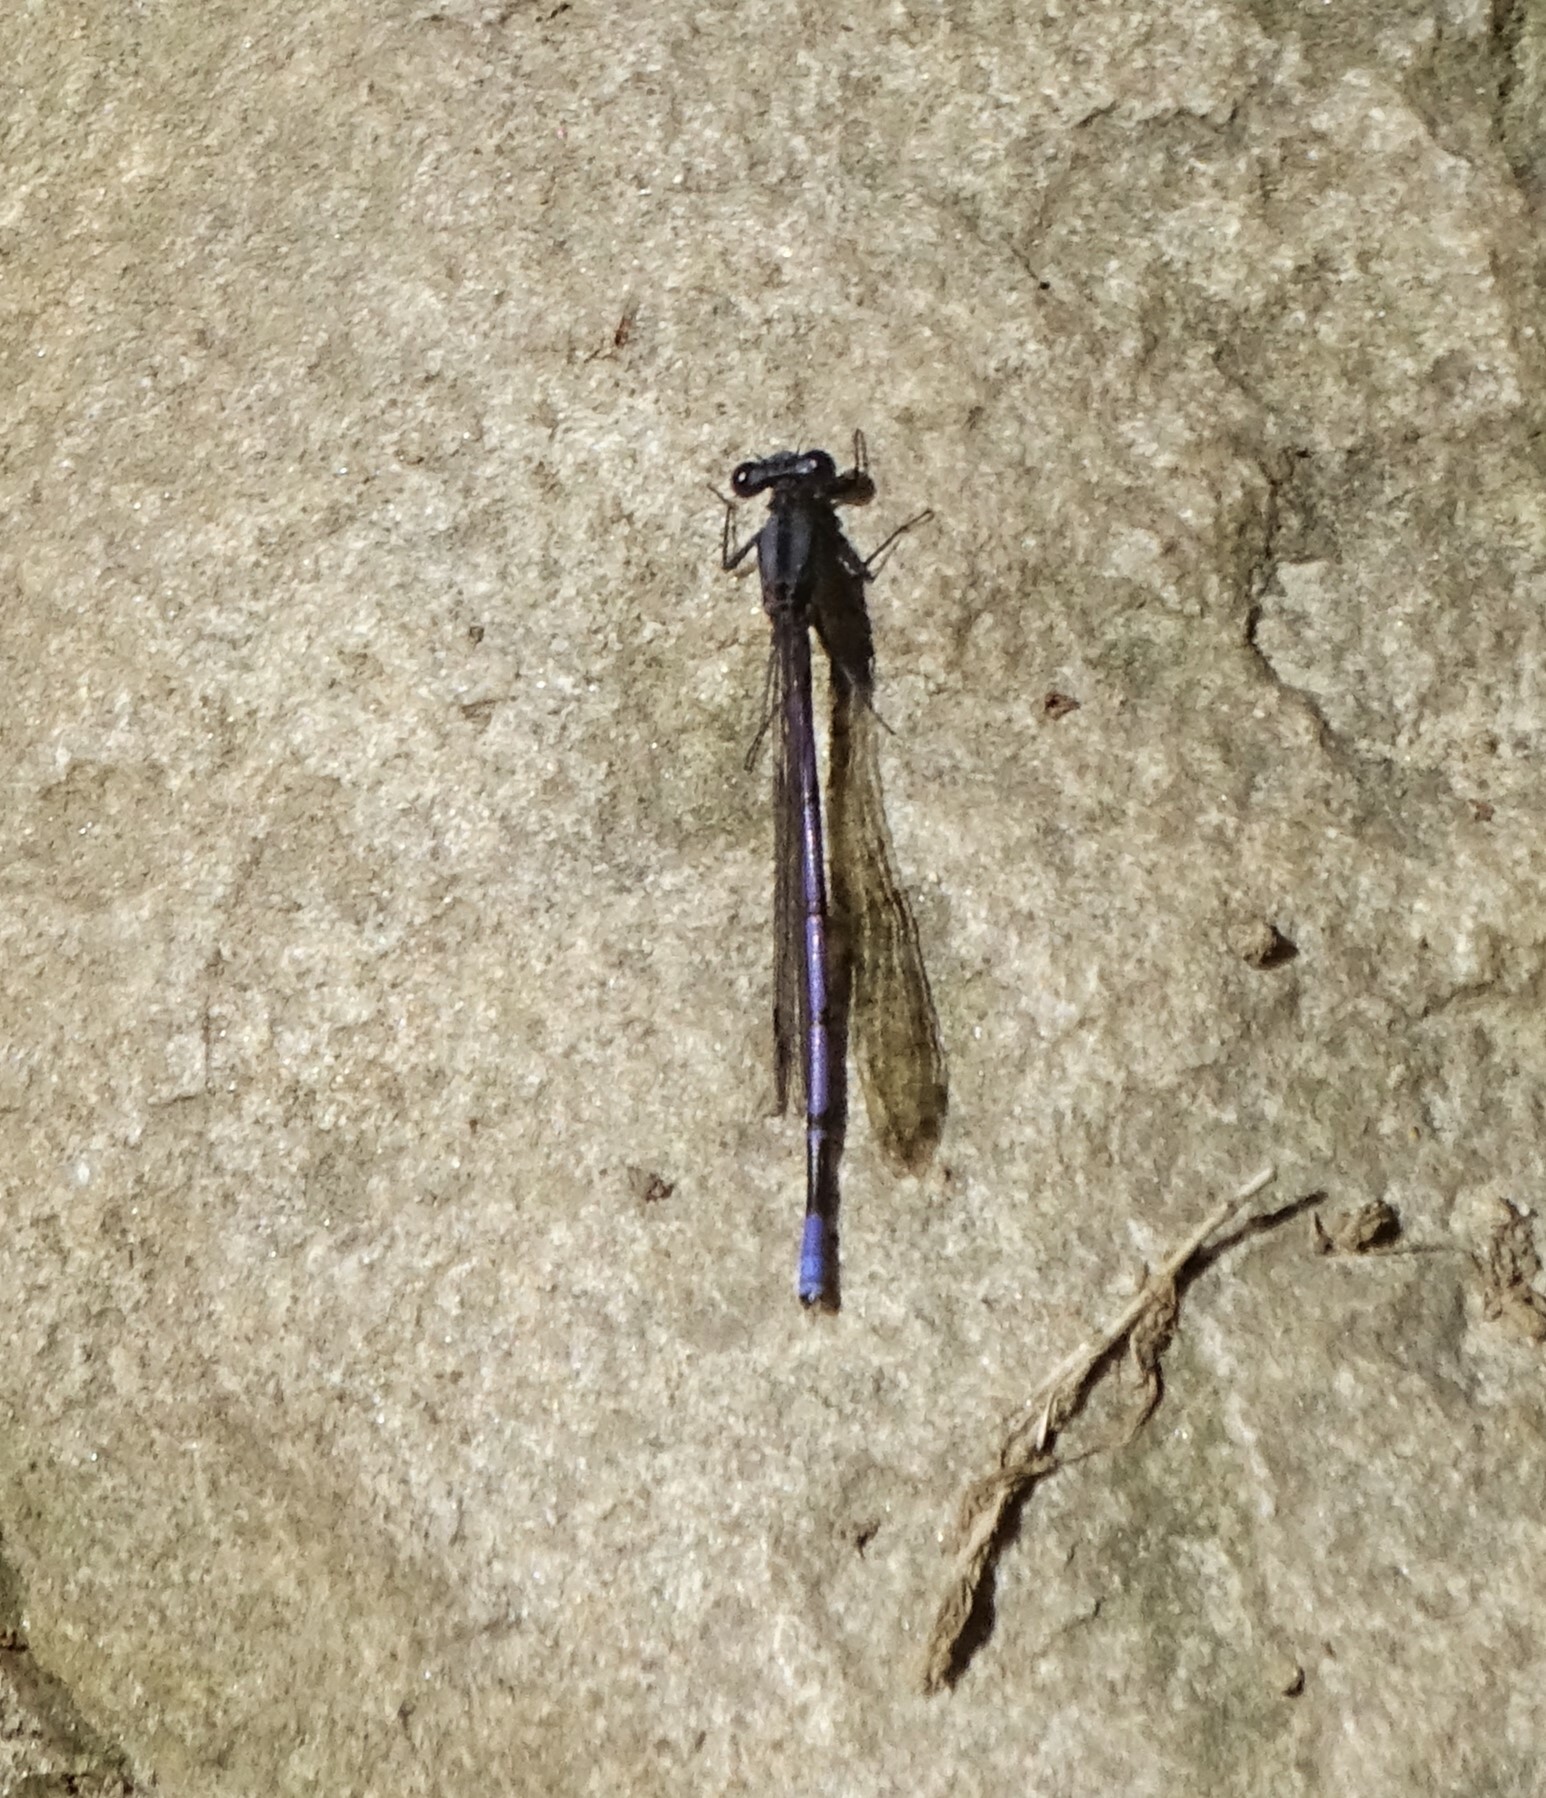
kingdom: Animalia
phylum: Arthropoda
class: Insecta
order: Odonata
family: Coenagrionidae
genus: Argia
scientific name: Argia fumipennis
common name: Variable dancer
